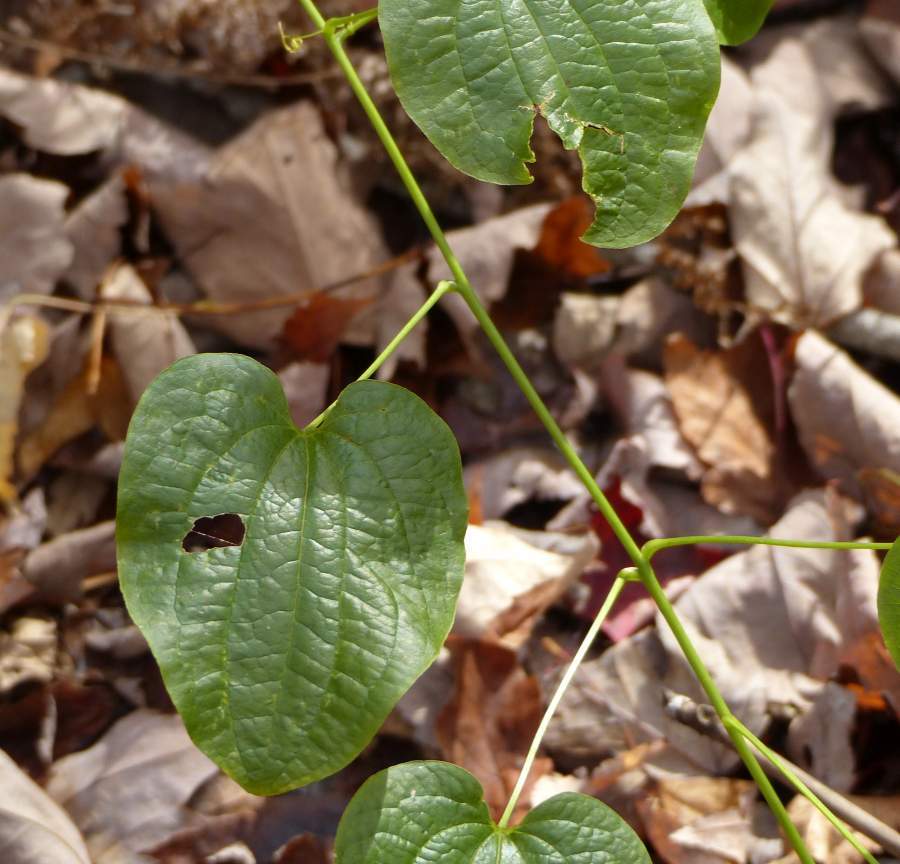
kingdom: Plantae
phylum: Tracheophyta
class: Liliopsida
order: Liliales
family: Smilacaceae
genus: Smilax
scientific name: Smilax herbacea
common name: Jacob's-ladder
